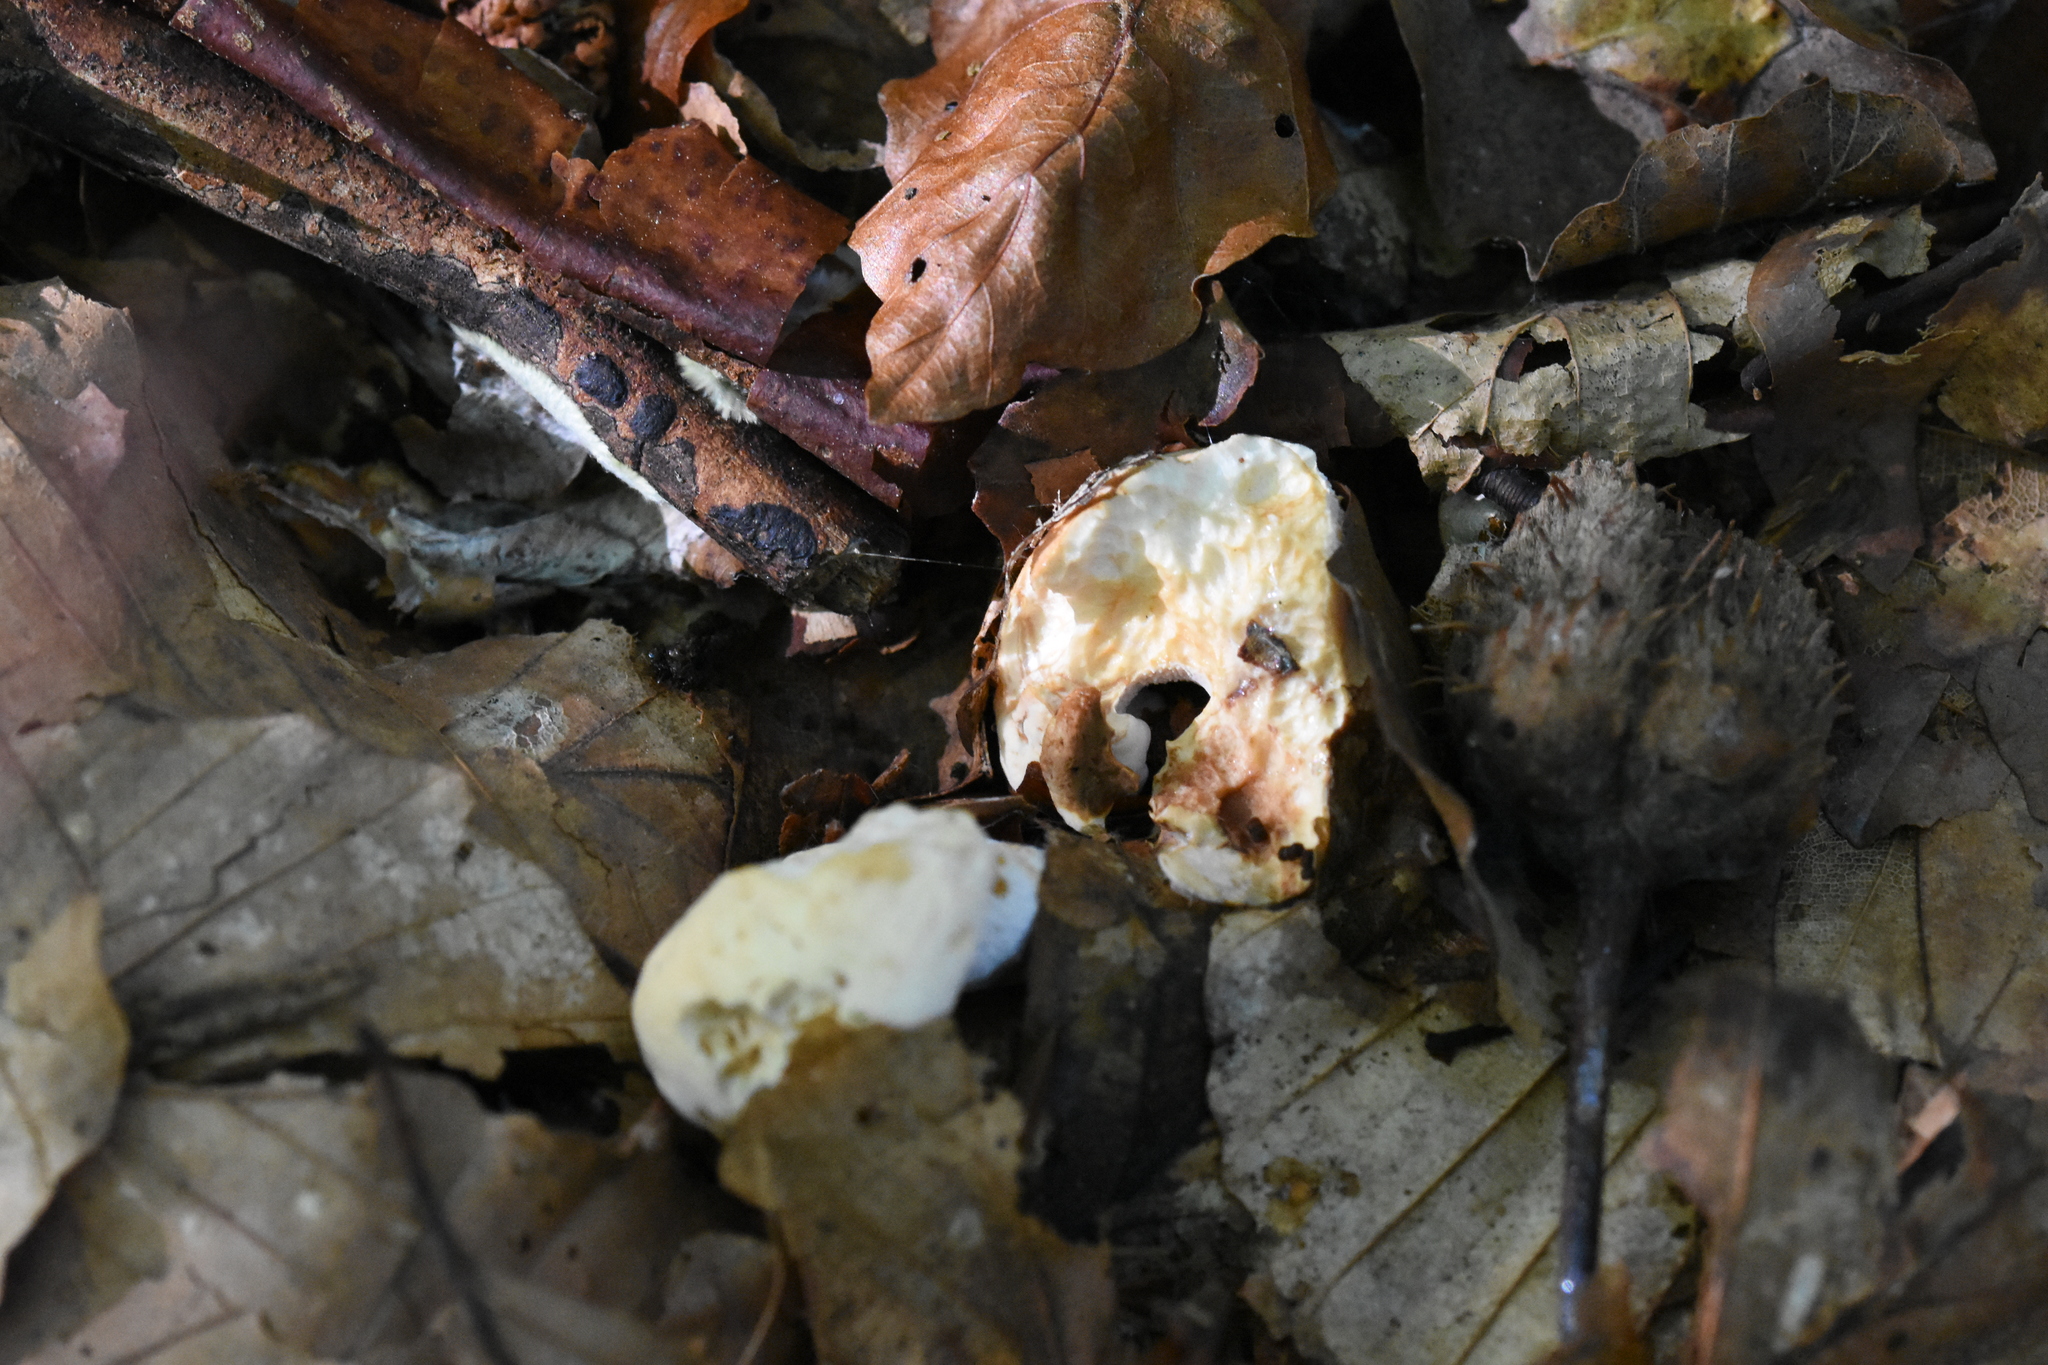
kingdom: Fungi
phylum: Basidiomycota
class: Agaricomycetes
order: Cantharellales
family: Hydnaceae
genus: Hydnum
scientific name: Hydnum repandum
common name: Wood hedgehog
